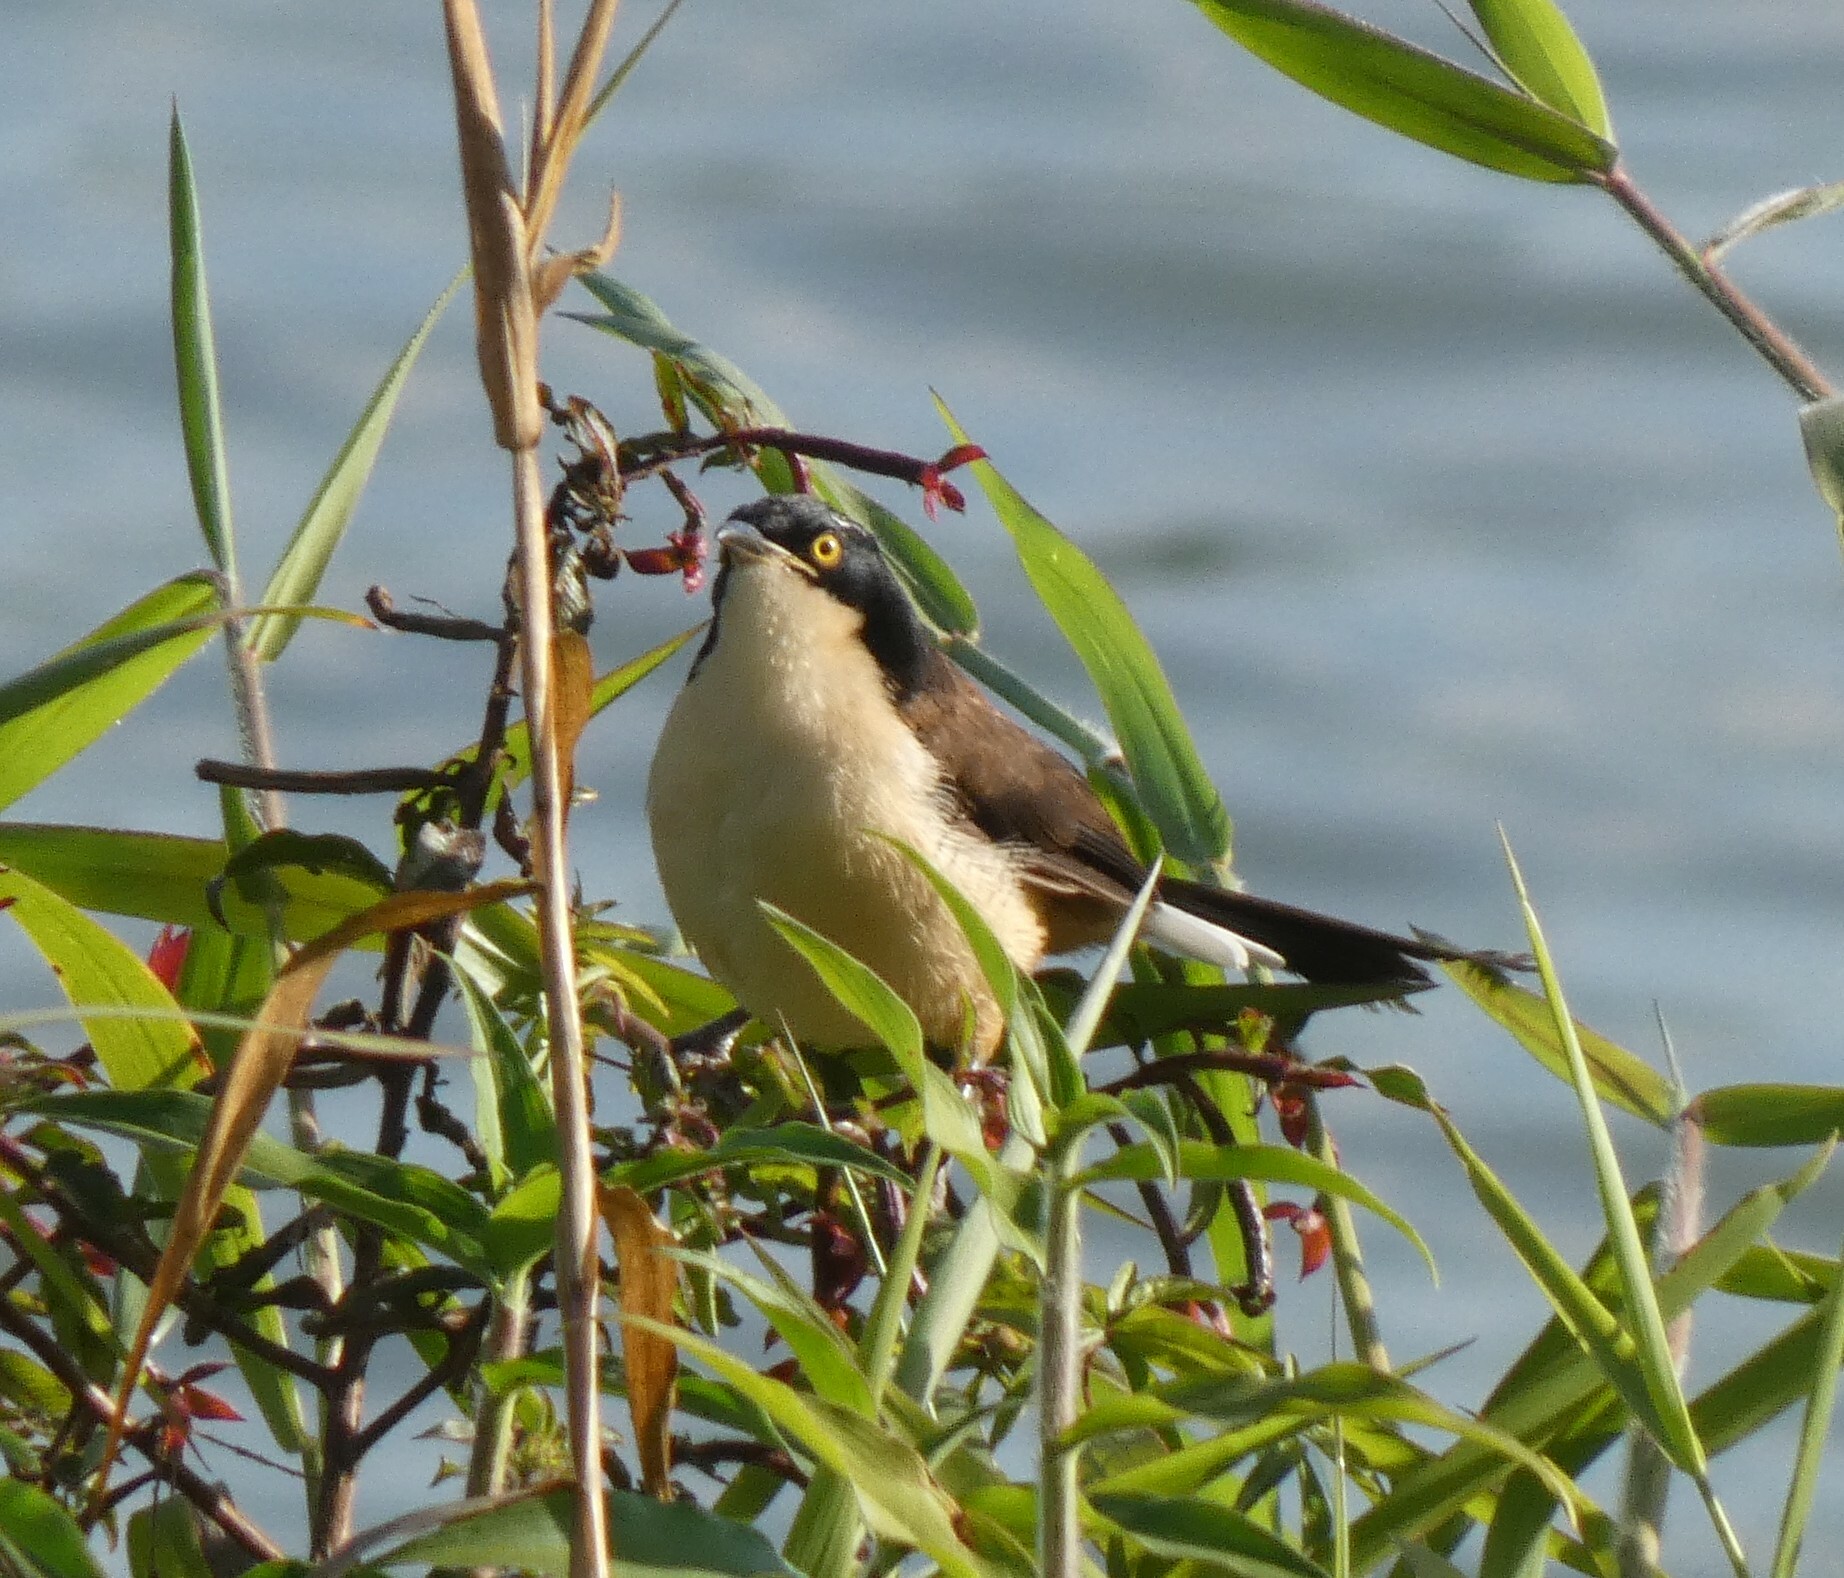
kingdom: Animalia
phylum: Chordata
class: Aves
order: Passeriformes
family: Donacobiidae
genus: Donacobius
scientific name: Donacobius atricapilla
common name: Black-capped donacobius
